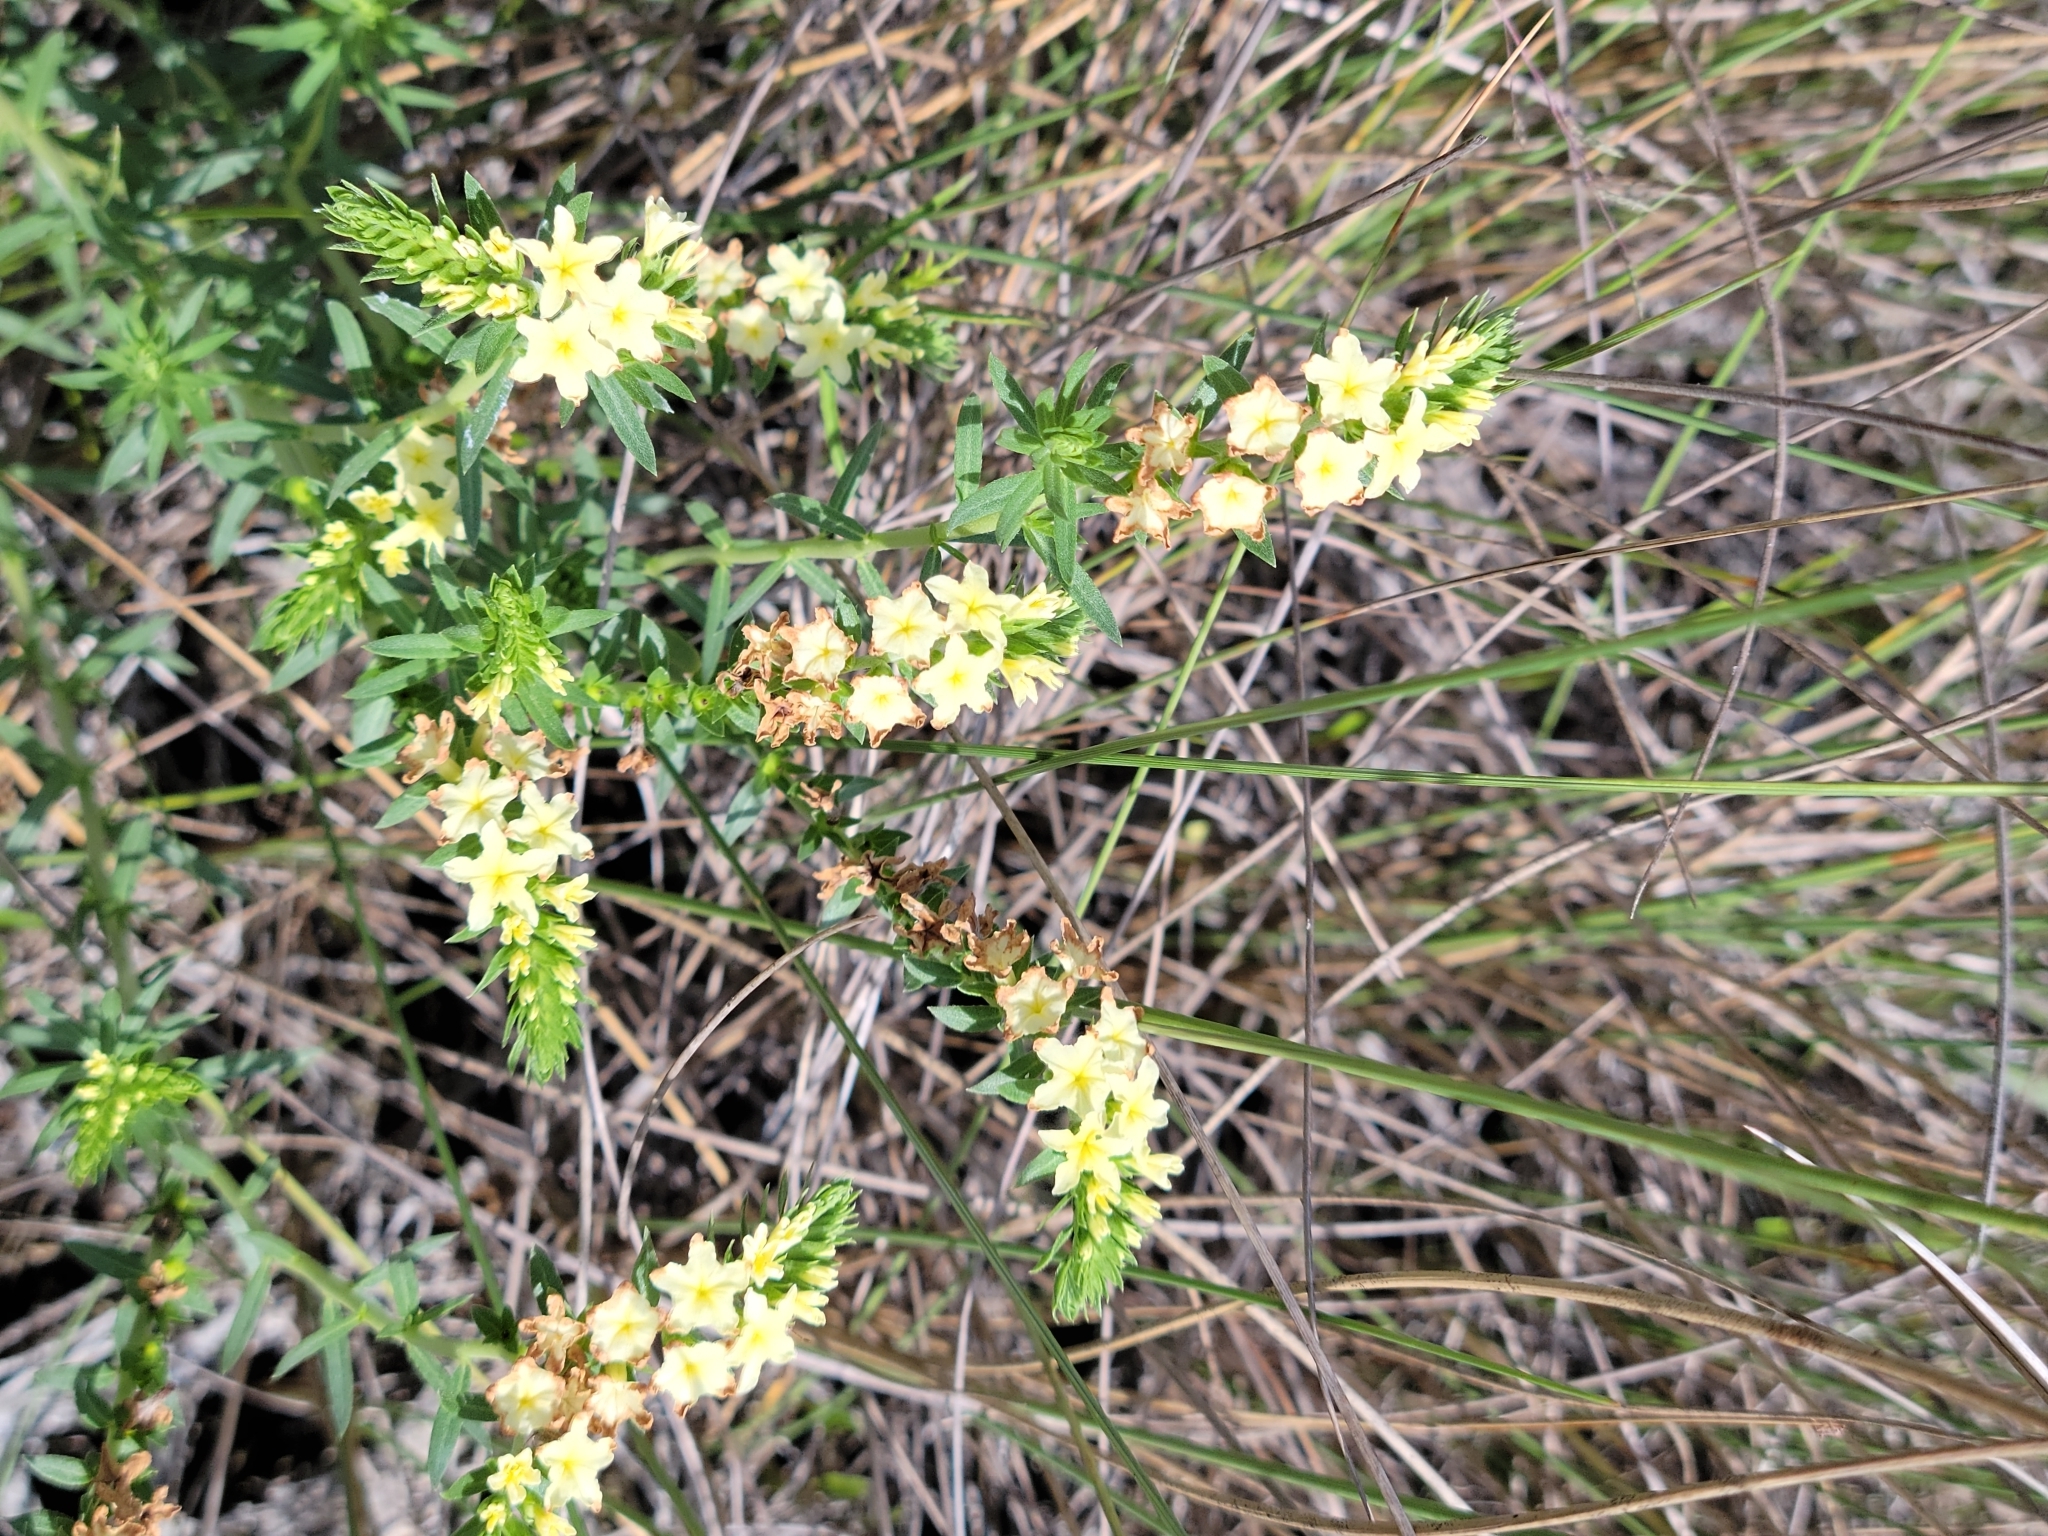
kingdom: Plantae
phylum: Tracheophyta
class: Magnoliopsida
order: Boraginales
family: Heliotropiaceae
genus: Euploca
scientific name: Euploca polyphylla
